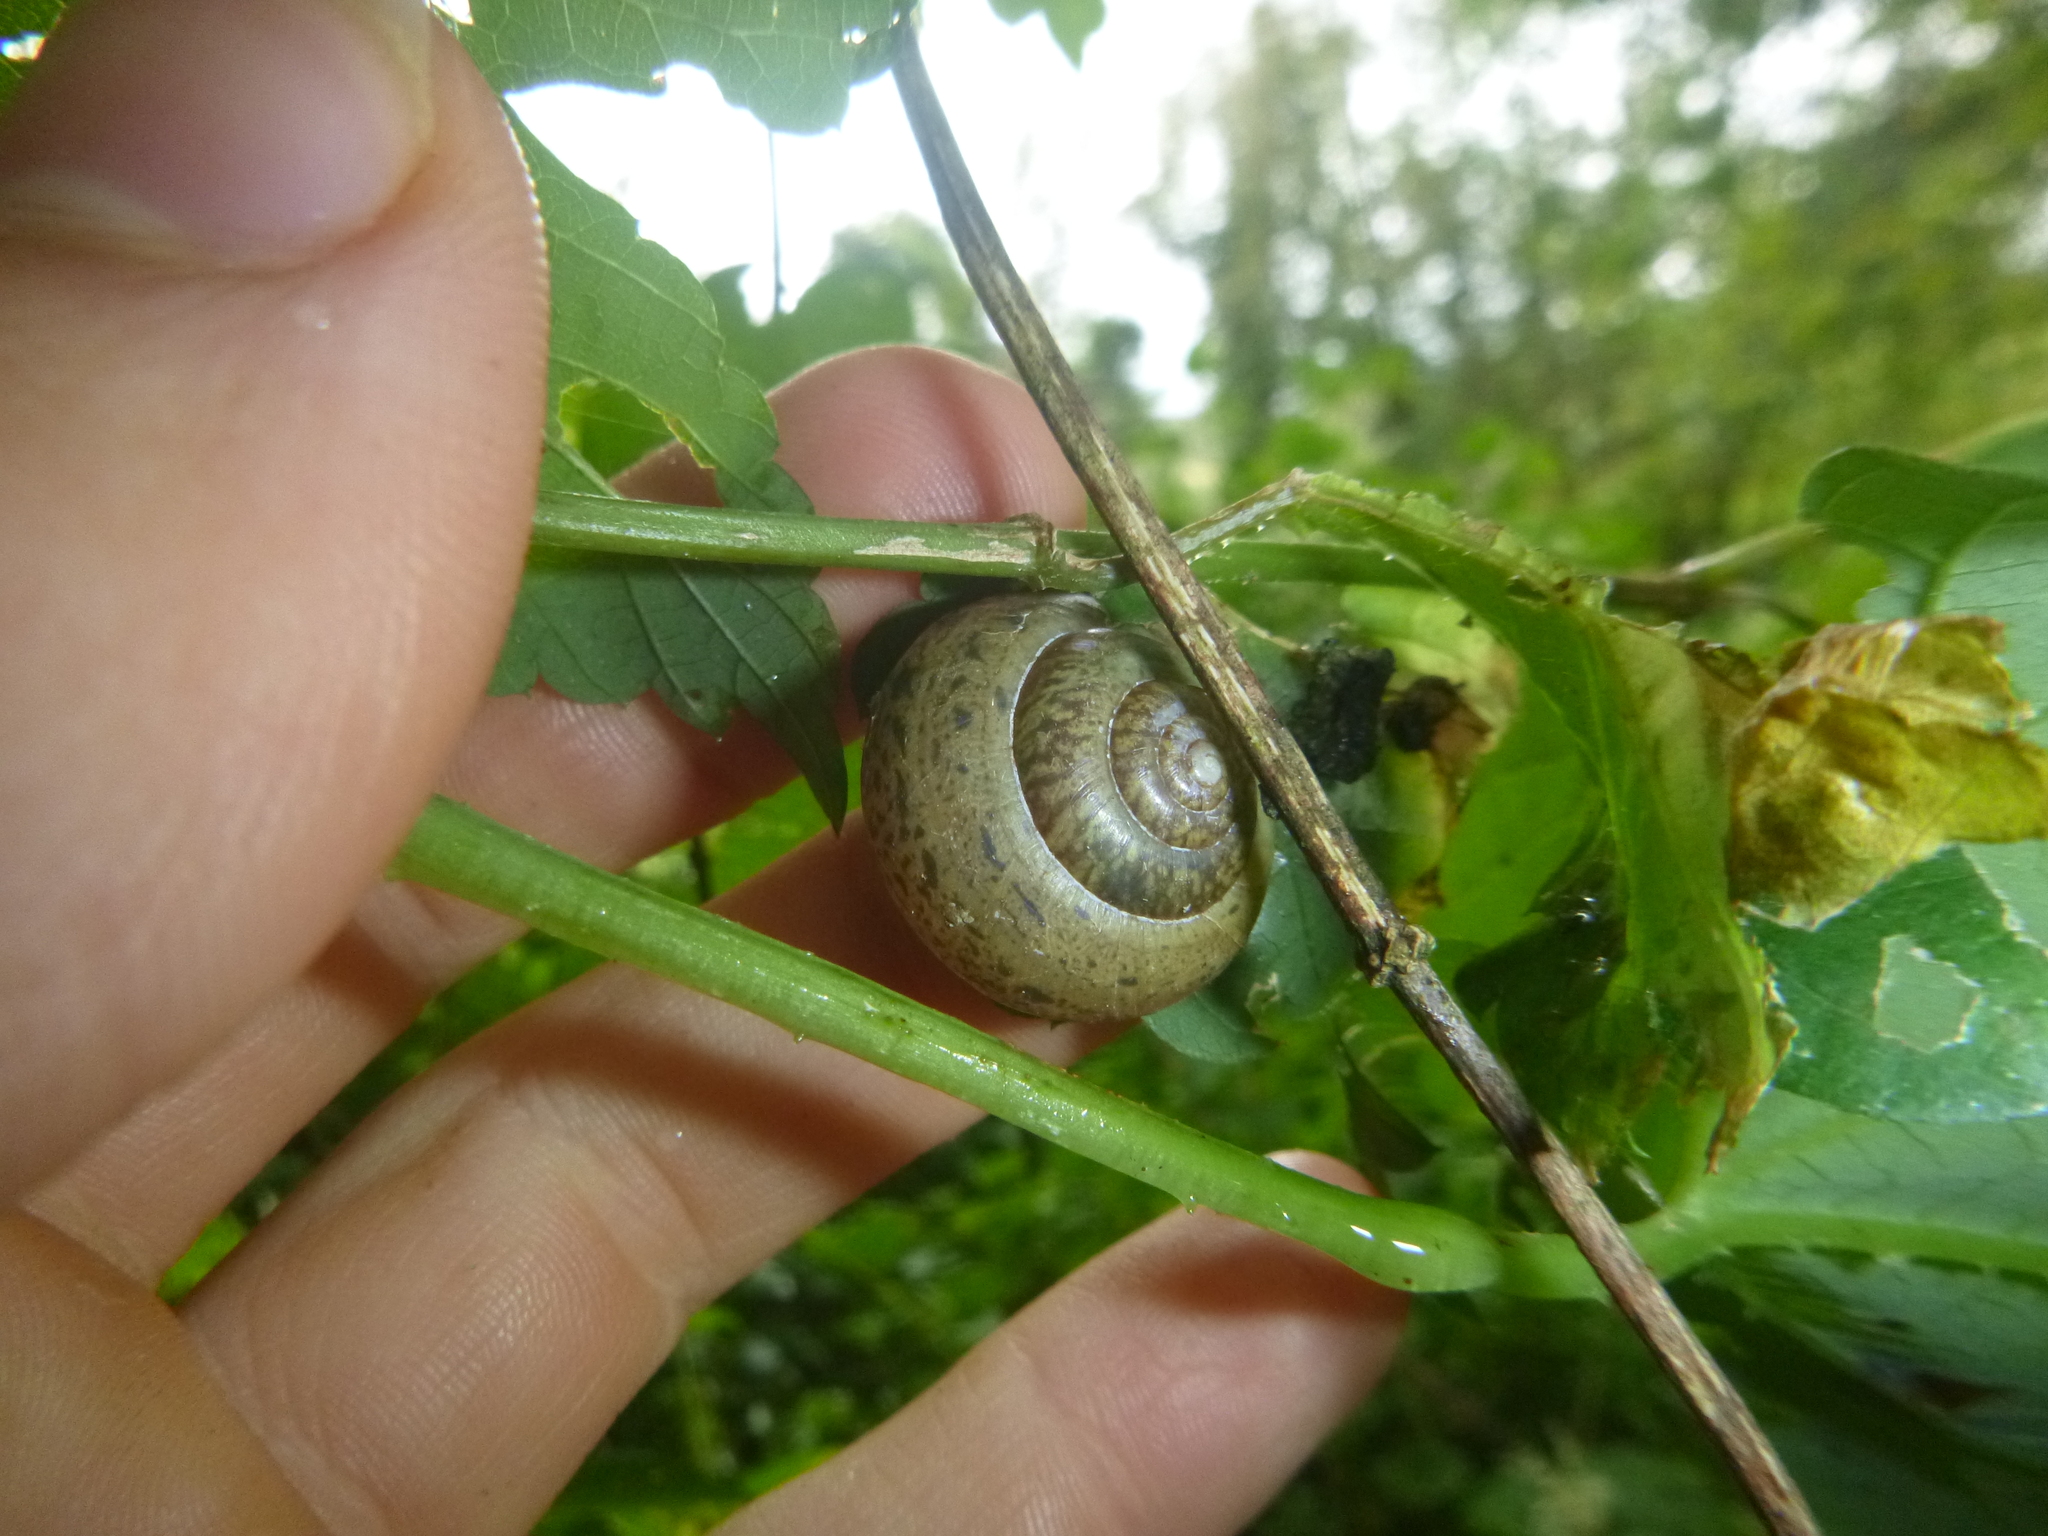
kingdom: Animalia
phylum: Mollusca
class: Gastropoda
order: Stylommatophora
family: Camaenidae
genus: Fruticicola
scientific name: Fruticicola fruticum
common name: Bush snail
